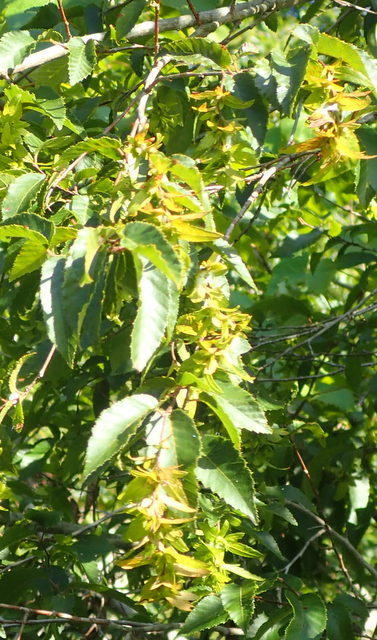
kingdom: Plantae
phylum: Tracheophyta
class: Magnoliopsida
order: Fagales
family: Betulaceae
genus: Carpinus
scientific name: Carpinus caroliniana
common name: American hornbeam
